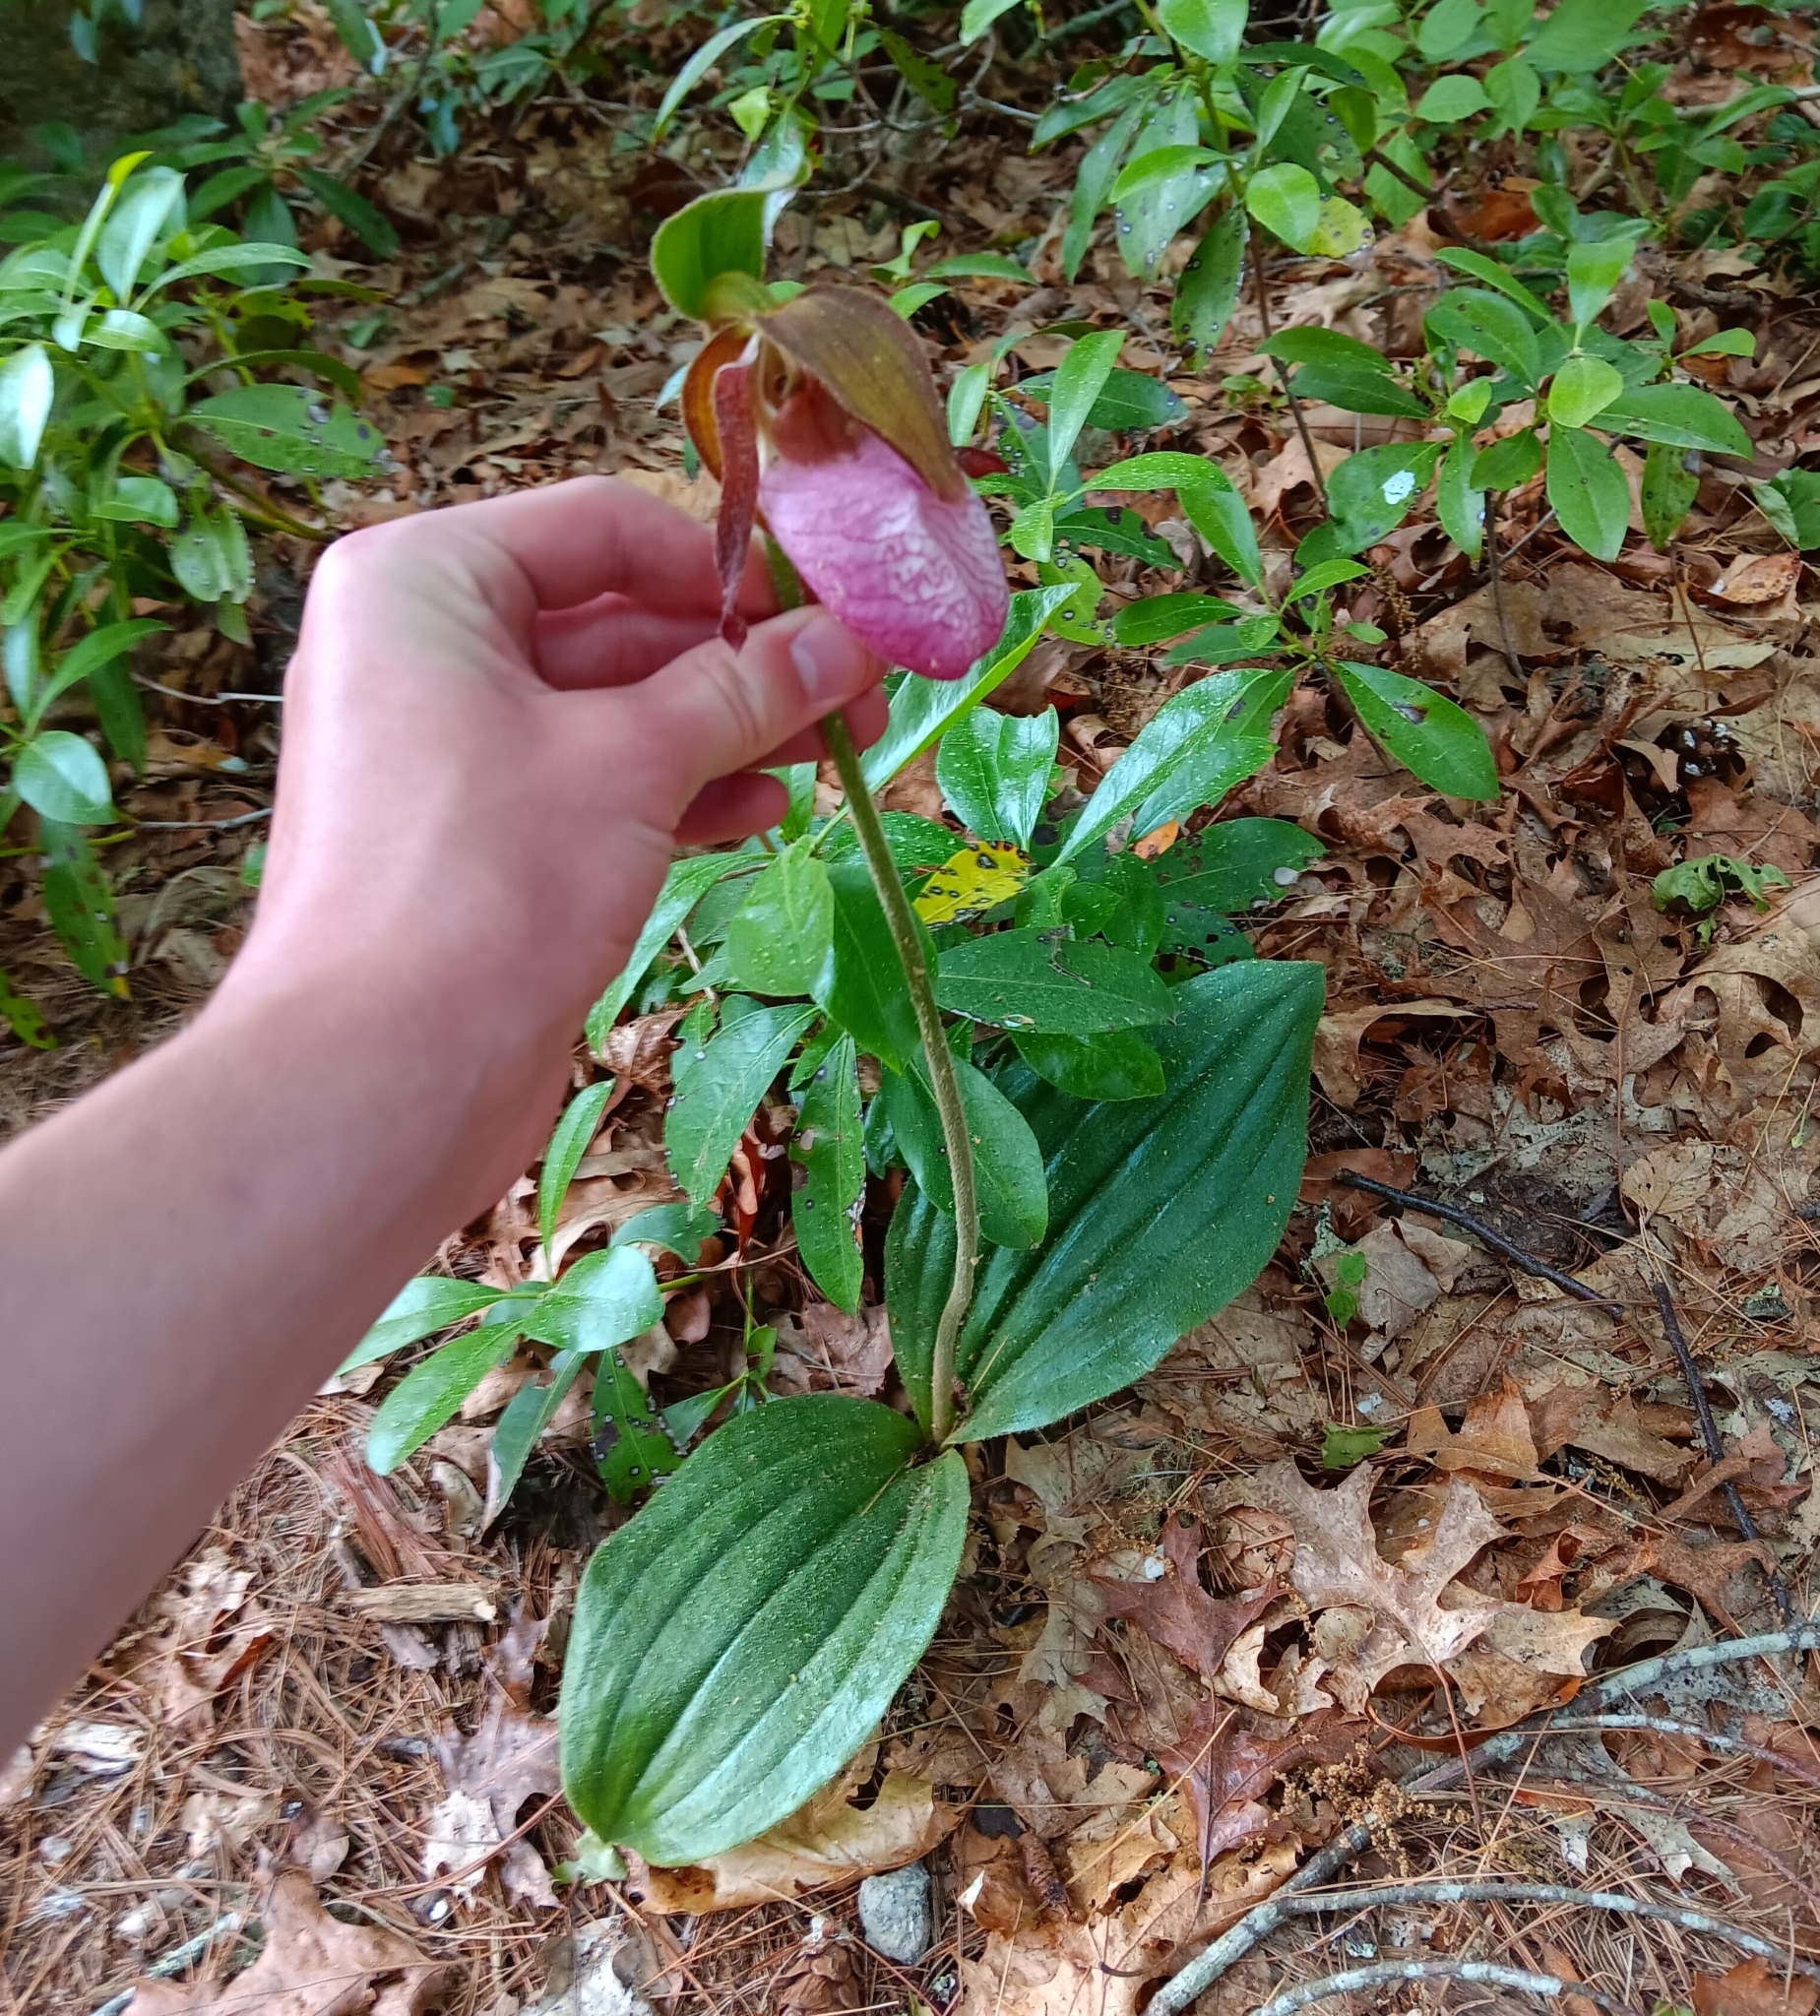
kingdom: Plantae
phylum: Tracheophyta
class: Liliopsida
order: Asparagales
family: Orchidaceae
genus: Cypripedium
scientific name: Cypripedium acaule
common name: Pink lady's-slipper
